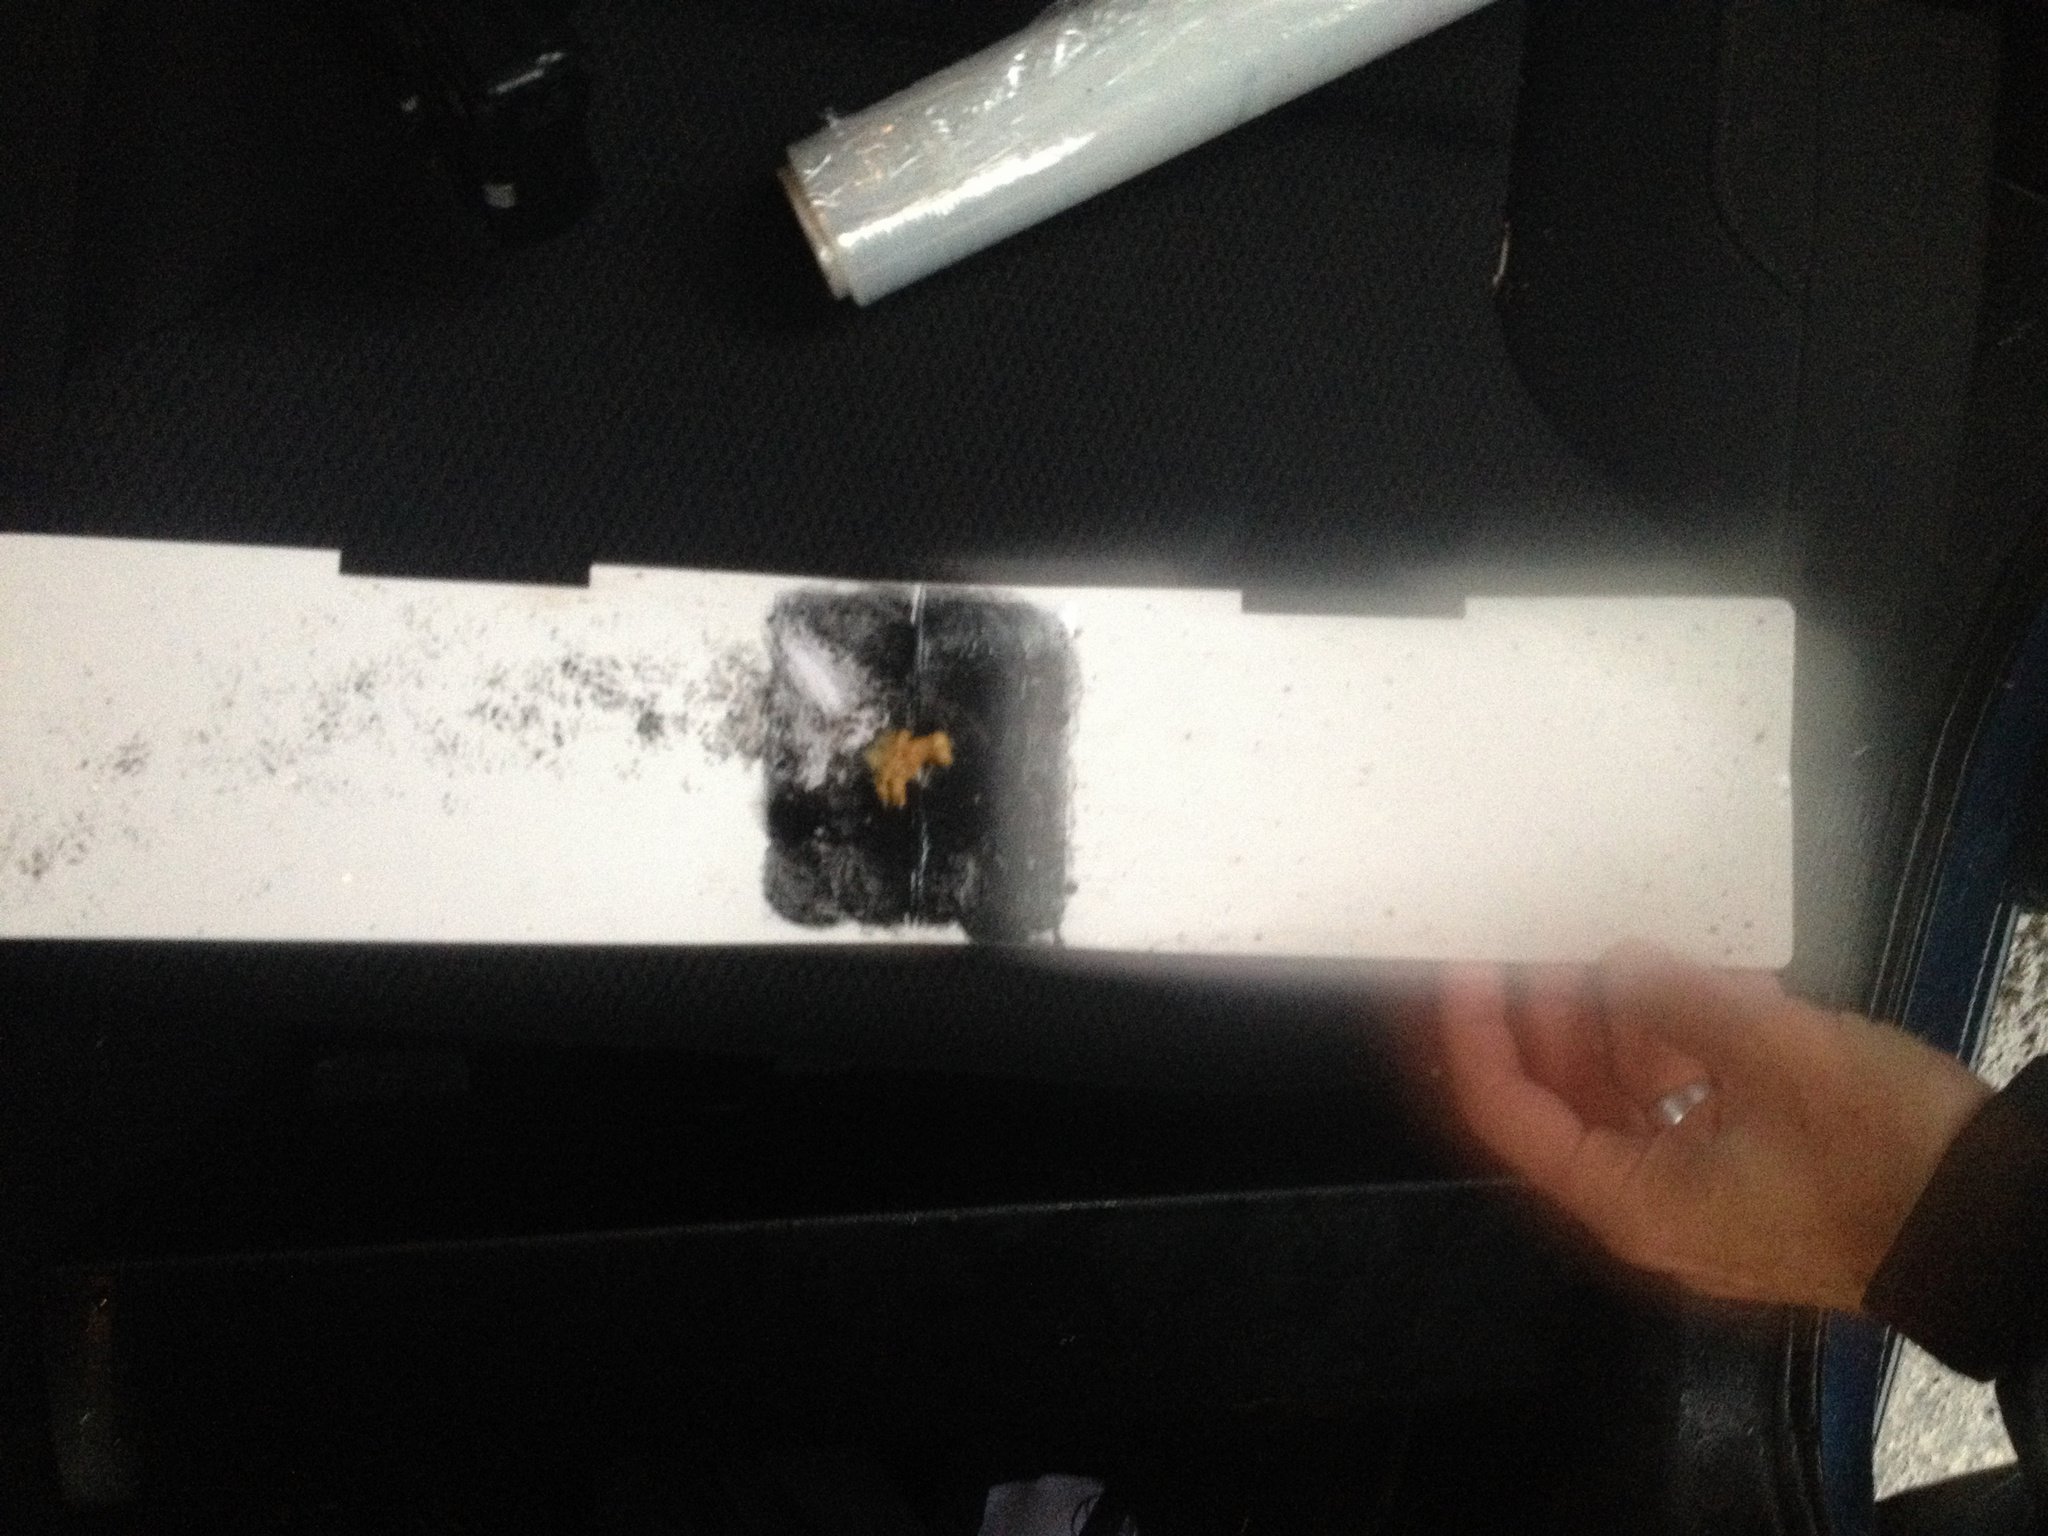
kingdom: Animalia
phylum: Chordata
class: Mammalia
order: Rodentia
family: Muridae
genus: Mus
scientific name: Mus musculus
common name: House mouse
